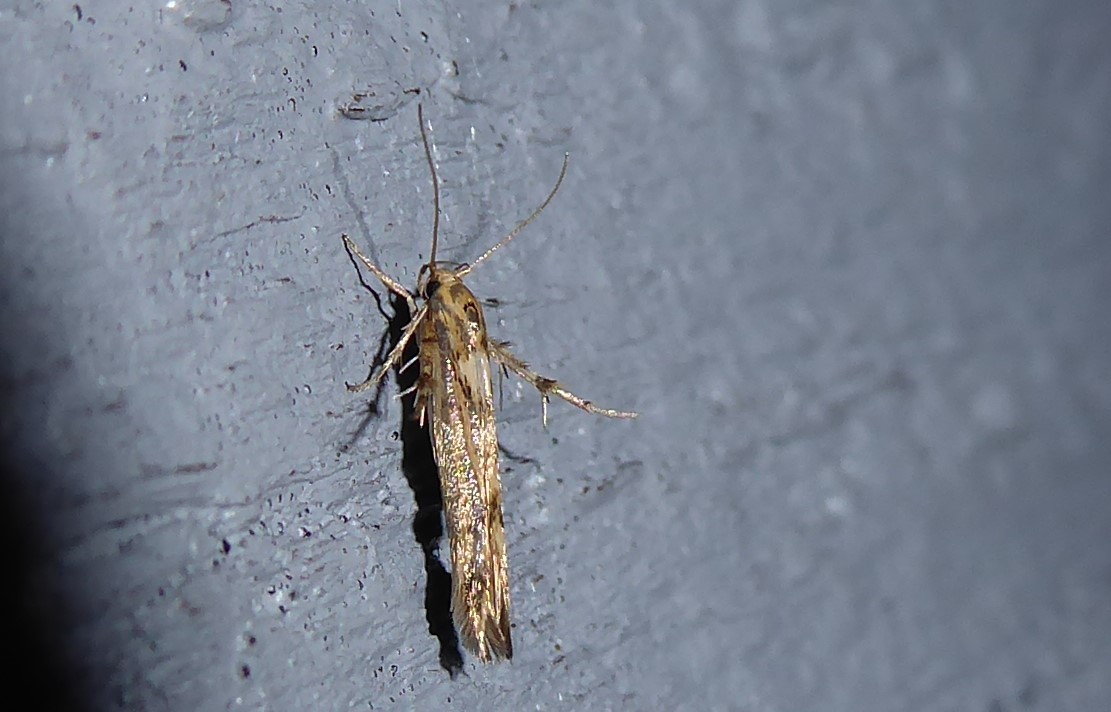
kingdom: Animalia
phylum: Arthropoda
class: Insecta
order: Lepidoptera
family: Stathmopodidae
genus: Stathmopoda
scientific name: Stathmopoda plumbiflua
